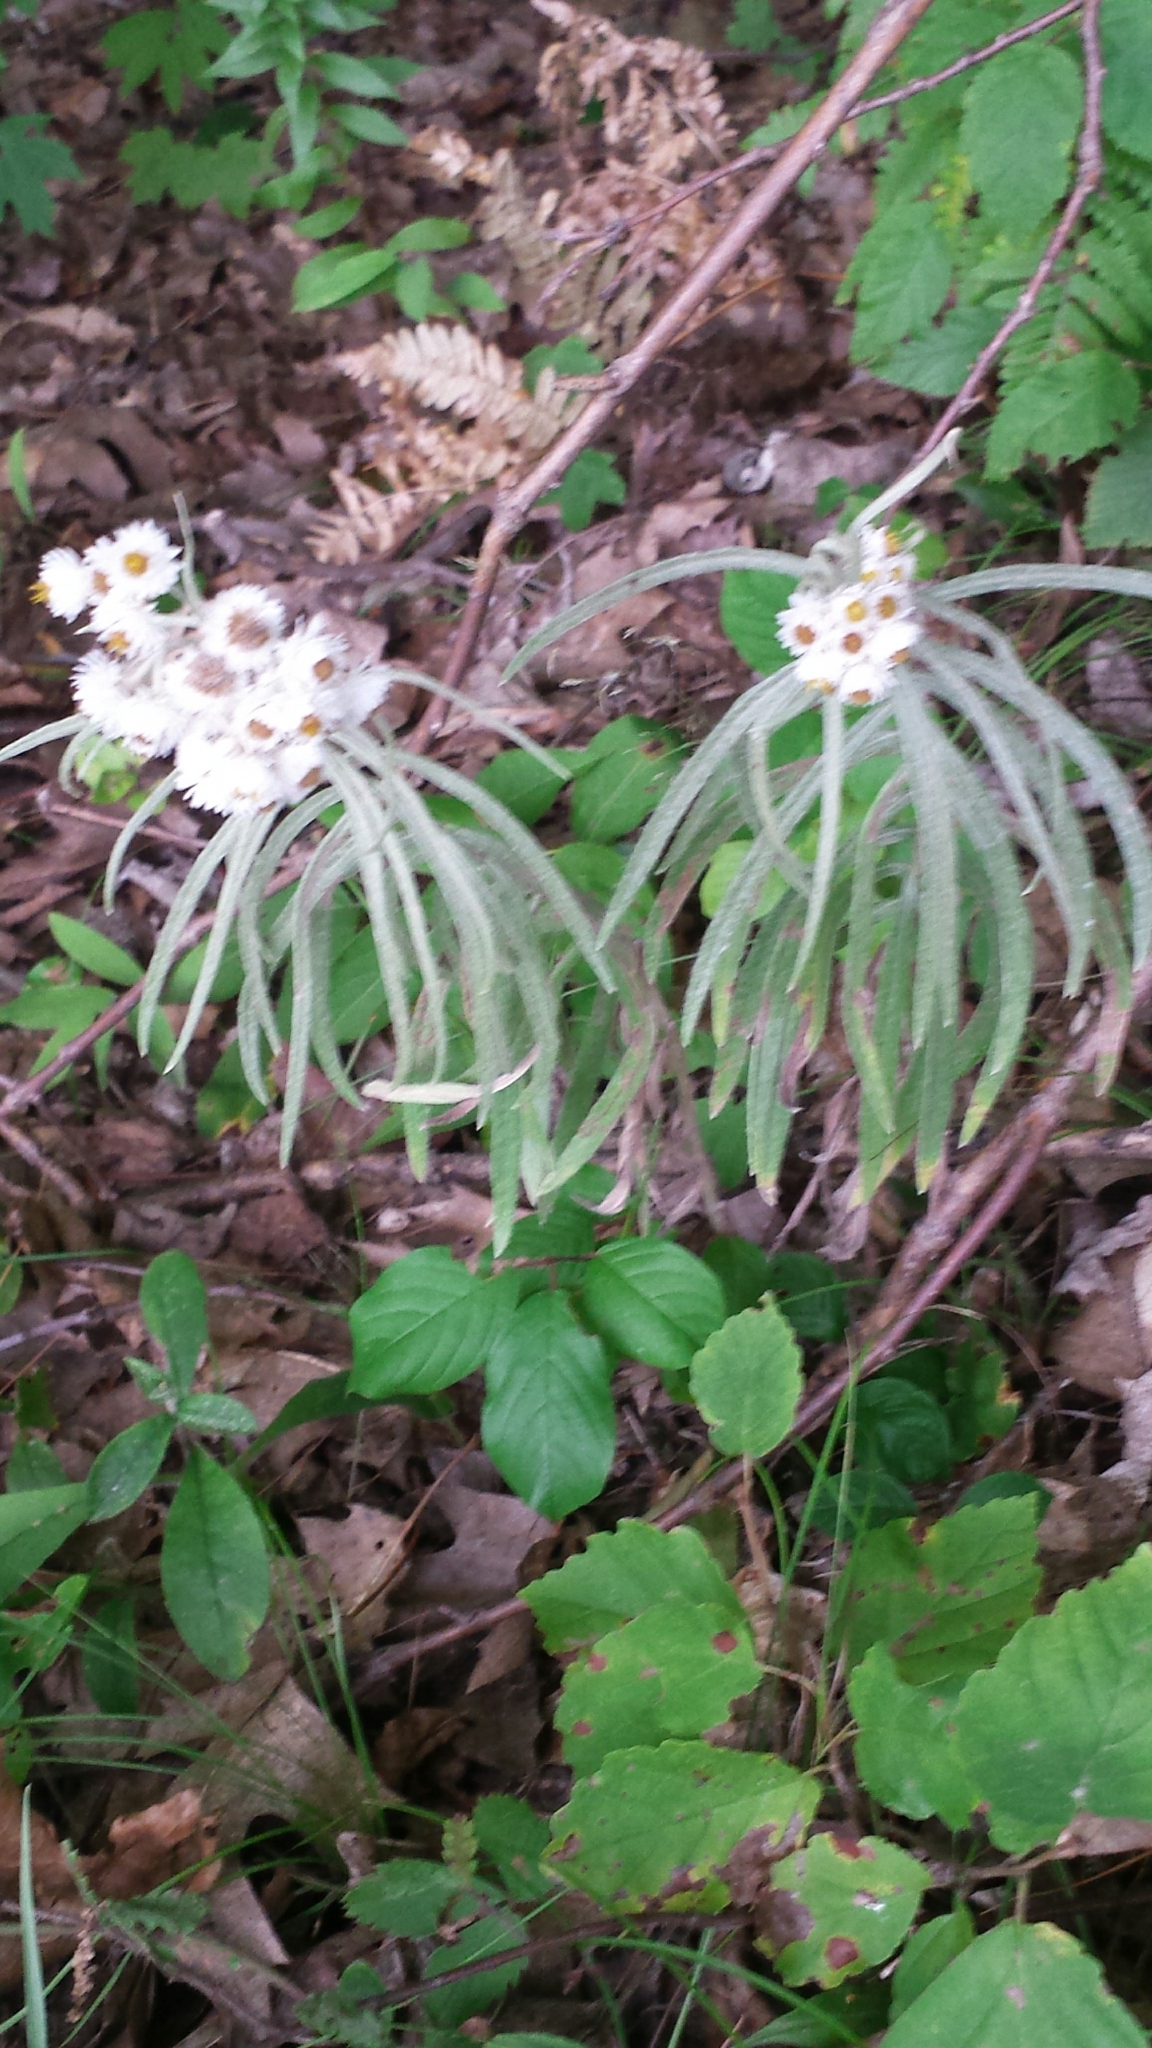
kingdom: Plantae
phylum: Tracheophyta
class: Magnoliopsida
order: Asterales
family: Asteraceae
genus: Anaphalis
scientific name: Anaphalis margaritacea
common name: Pearly everlasting
